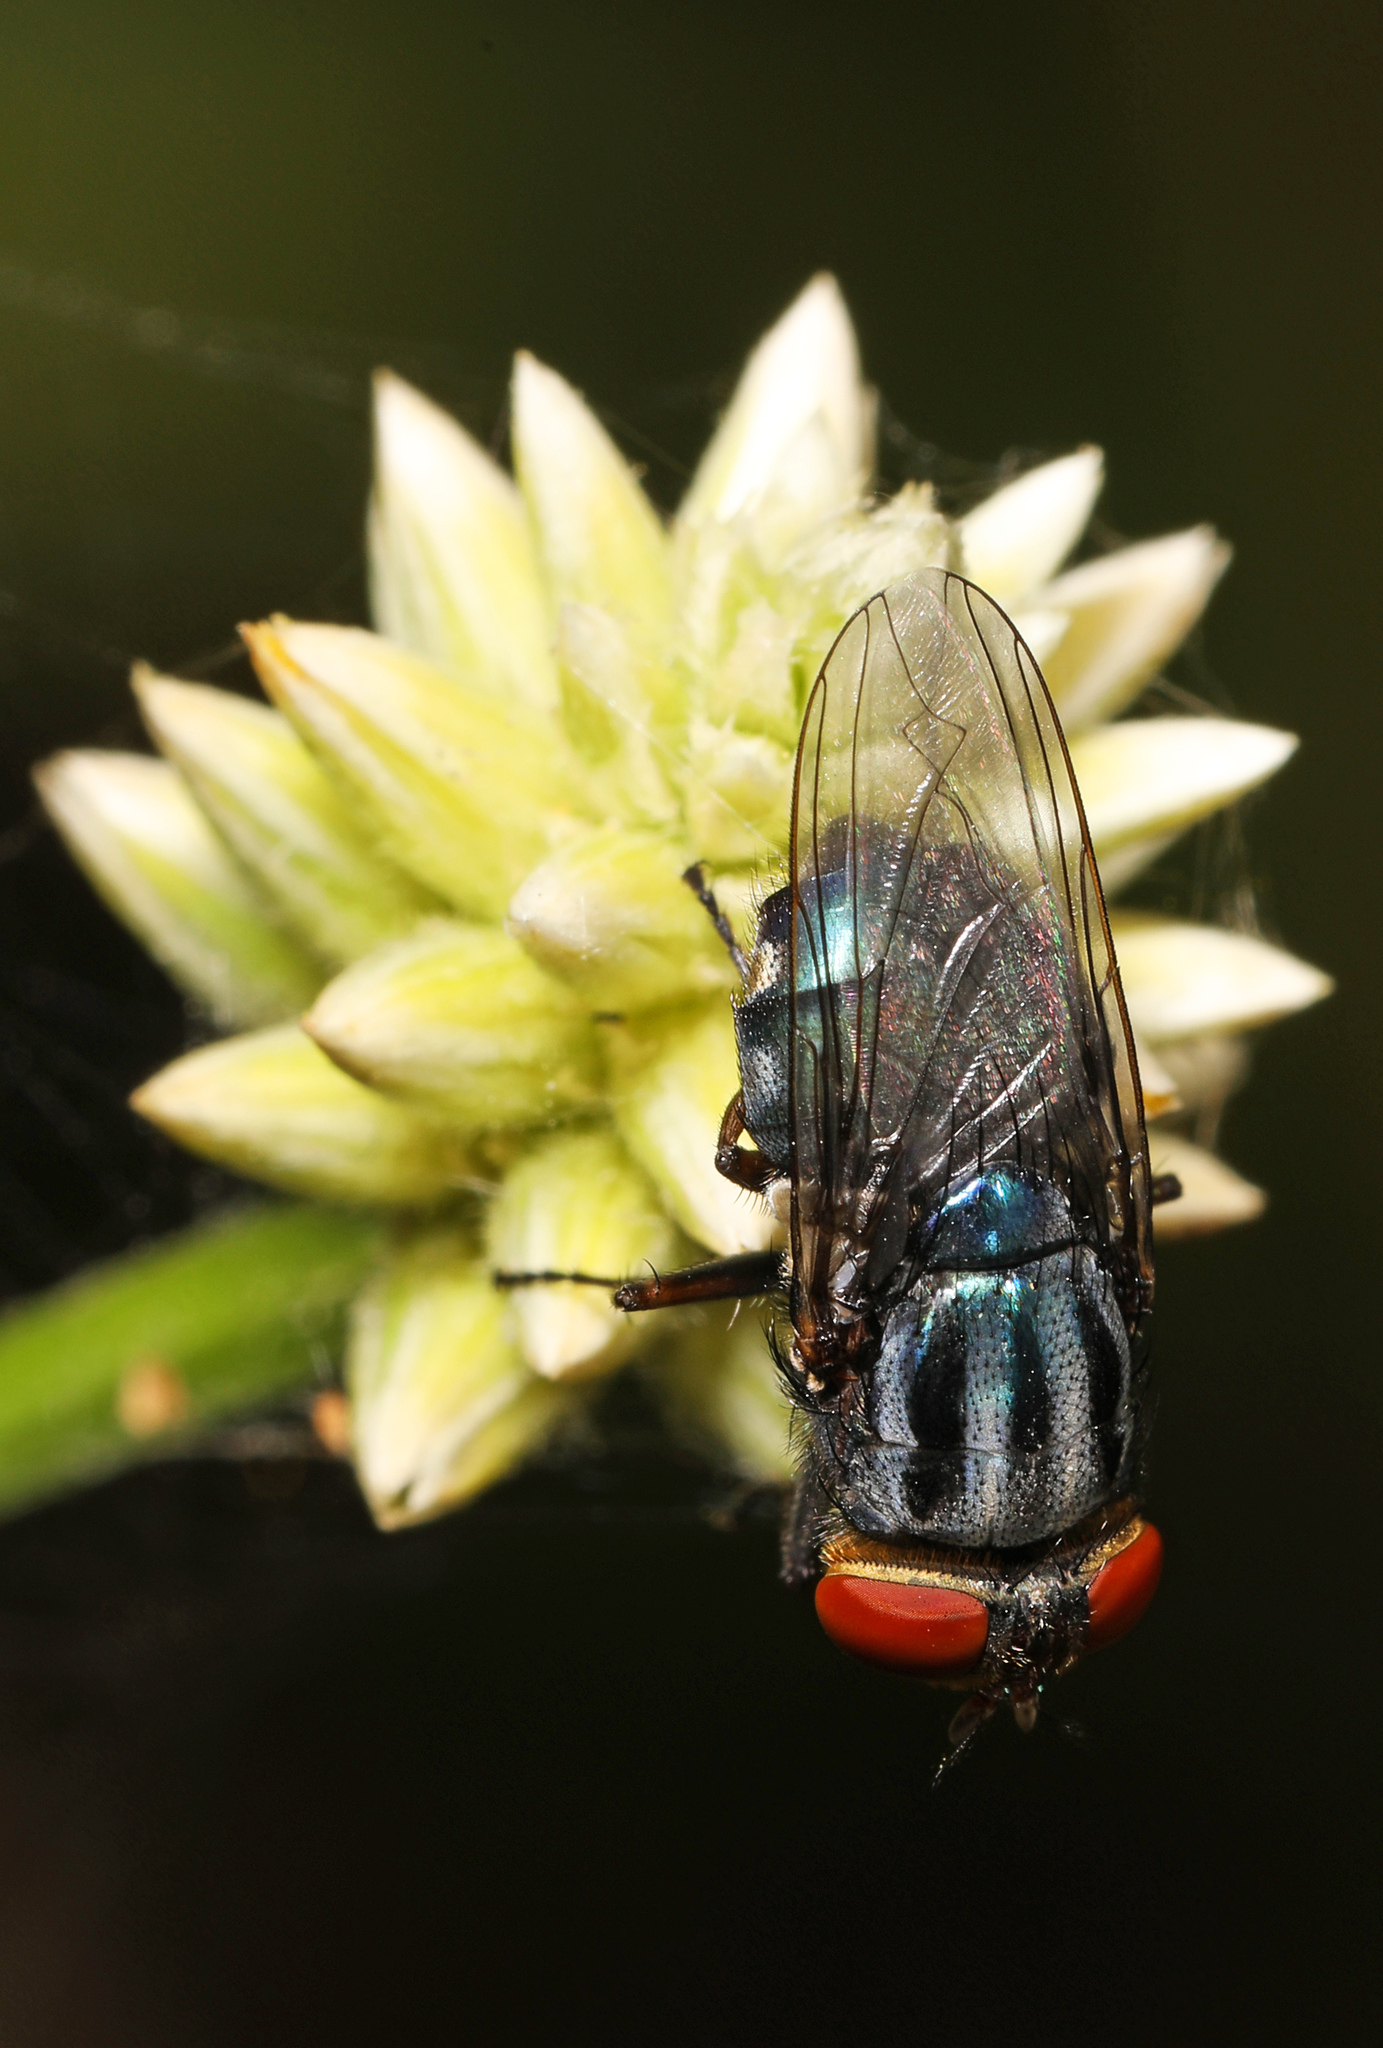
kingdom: Animalia
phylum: Arthropoda
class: Insecta
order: Diptera
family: Calliphoridae
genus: Cochliomyia
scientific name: Cochliomyia macellaria
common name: Secondary screwworm
